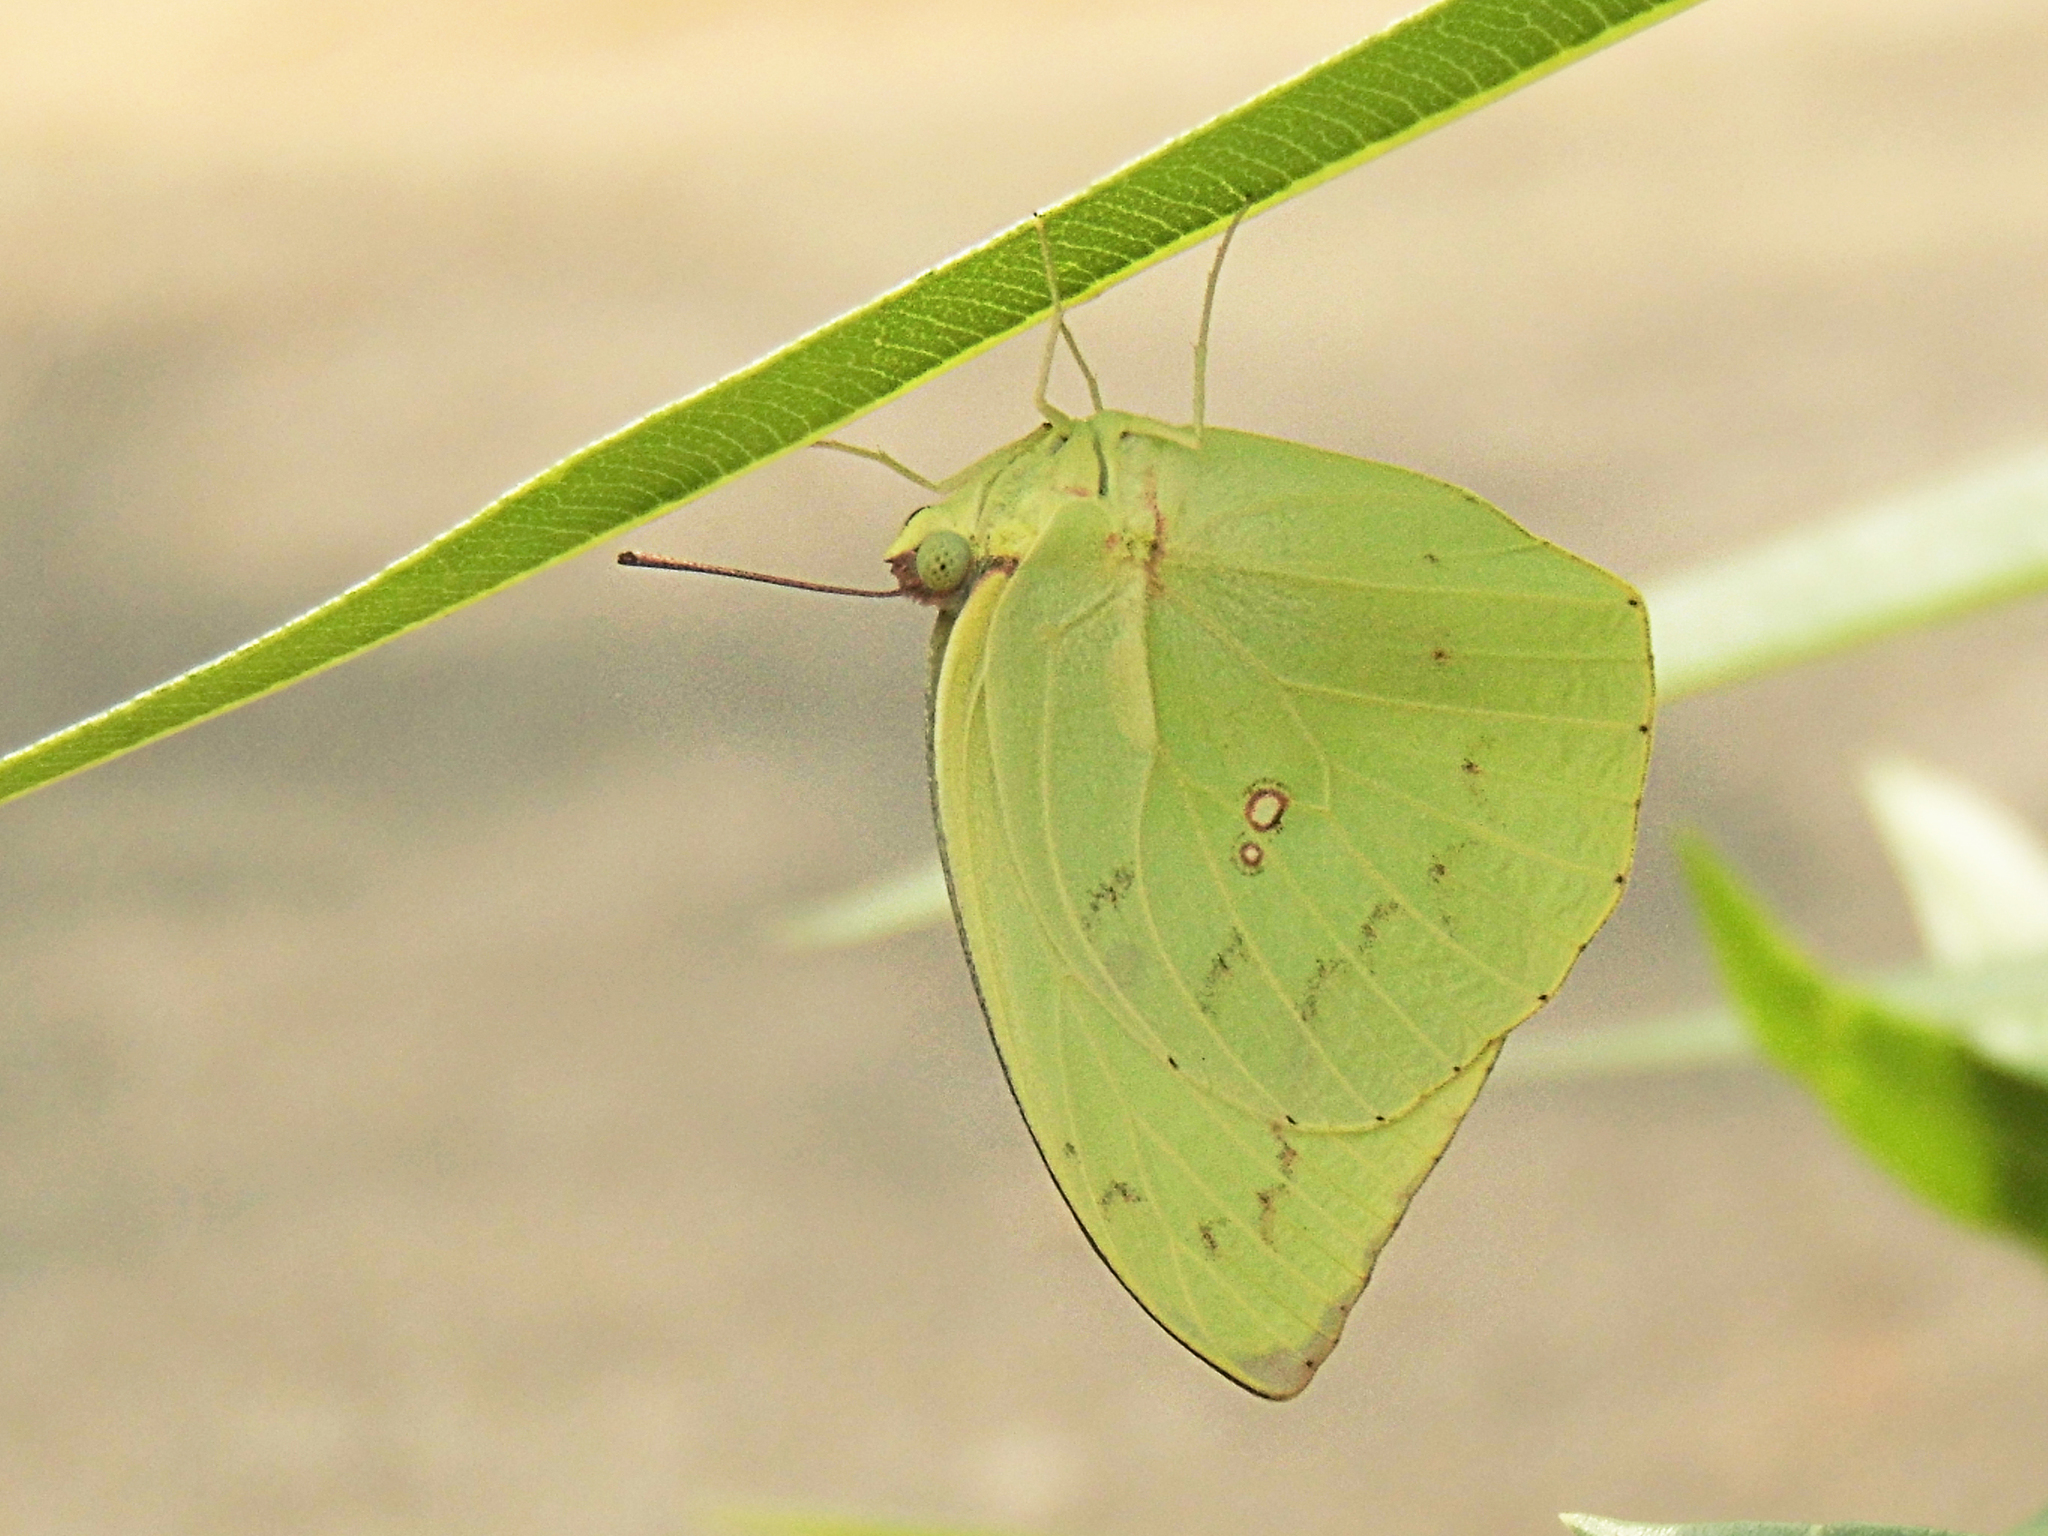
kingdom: Animalia
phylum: Arthropoda
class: Insecta
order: Lepidoptera
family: Pieridae
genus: Catopsilia
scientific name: Catopsilia pomona
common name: Common emigrant
